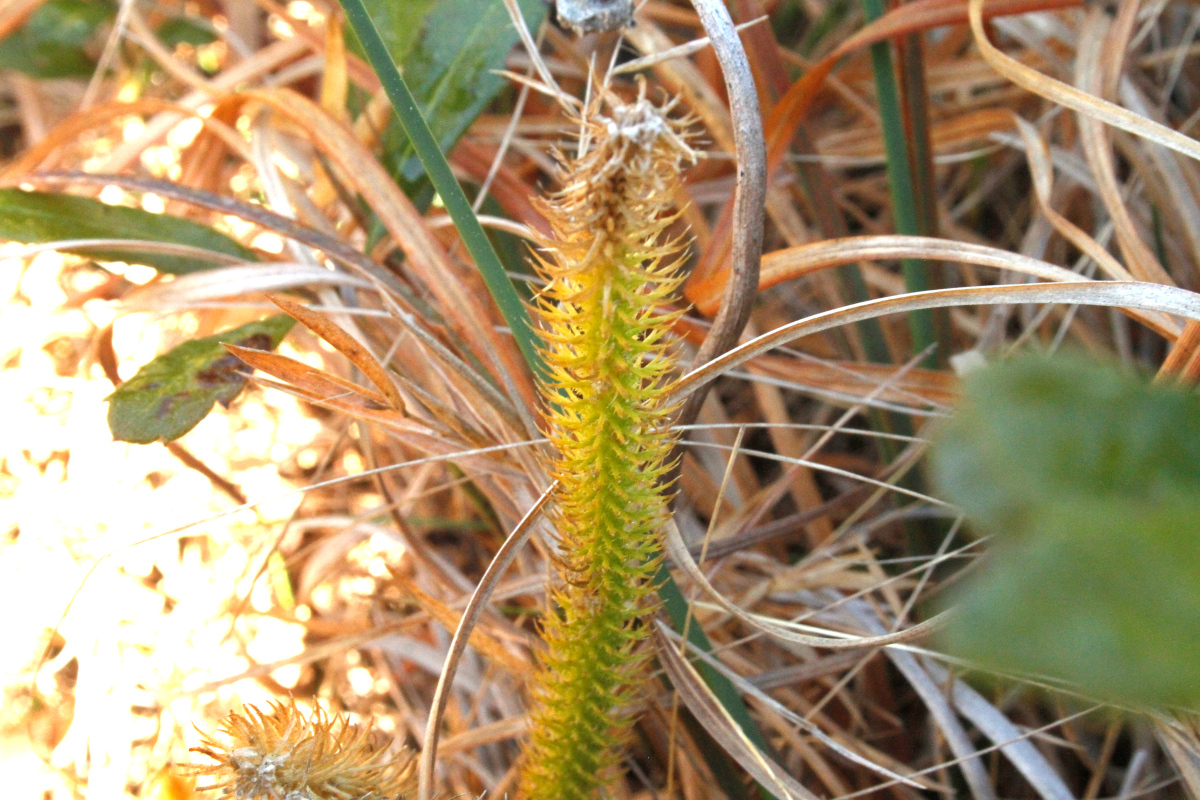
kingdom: Plantae
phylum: Tracheophyta
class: Lycopodiopsida
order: Lycopodiales
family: Lycopodiaceae
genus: Lycopodiella
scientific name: Lycopodiella alopecuroides
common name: Foxtail clubmoss
